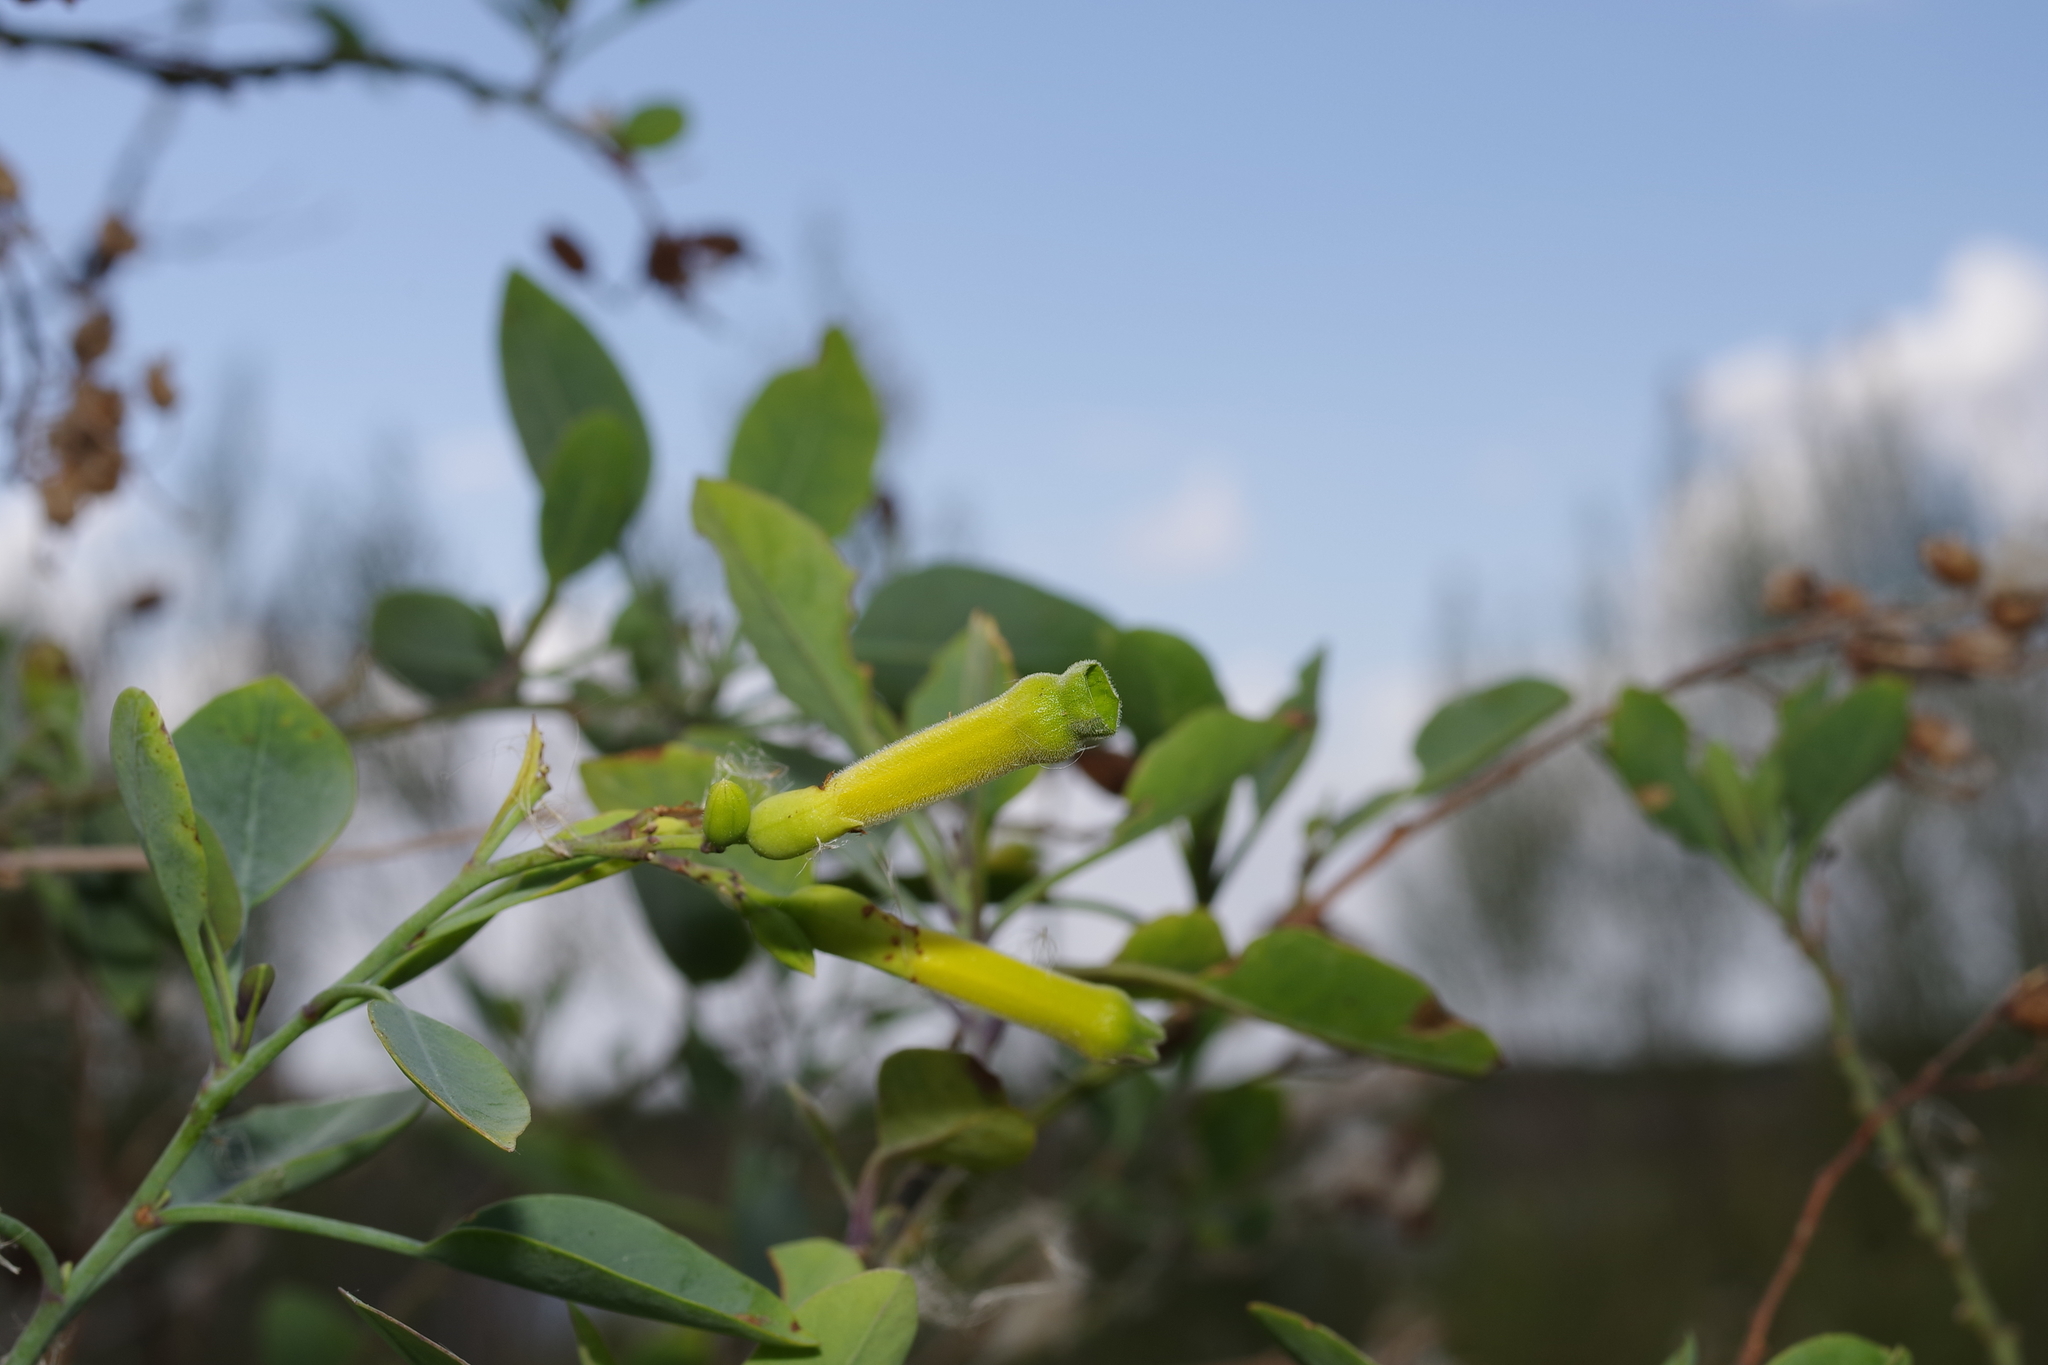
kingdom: Plantae
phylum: Tracheophyta
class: Magnoliopsida
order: Solanales
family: Solanaceae
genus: Nicotiana
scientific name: Nicotiana glauca
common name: Tree tobacco
